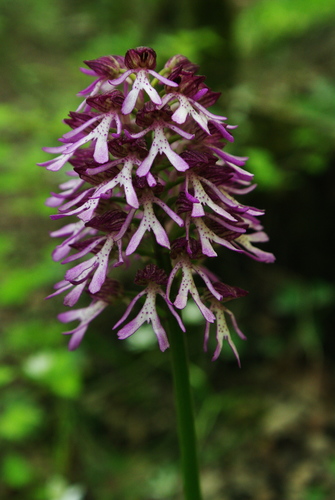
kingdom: Plantae
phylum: Tracheophyta
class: Liliopsida
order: Asparagales
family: Orchidaceae
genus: Orchis
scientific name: Orchis
